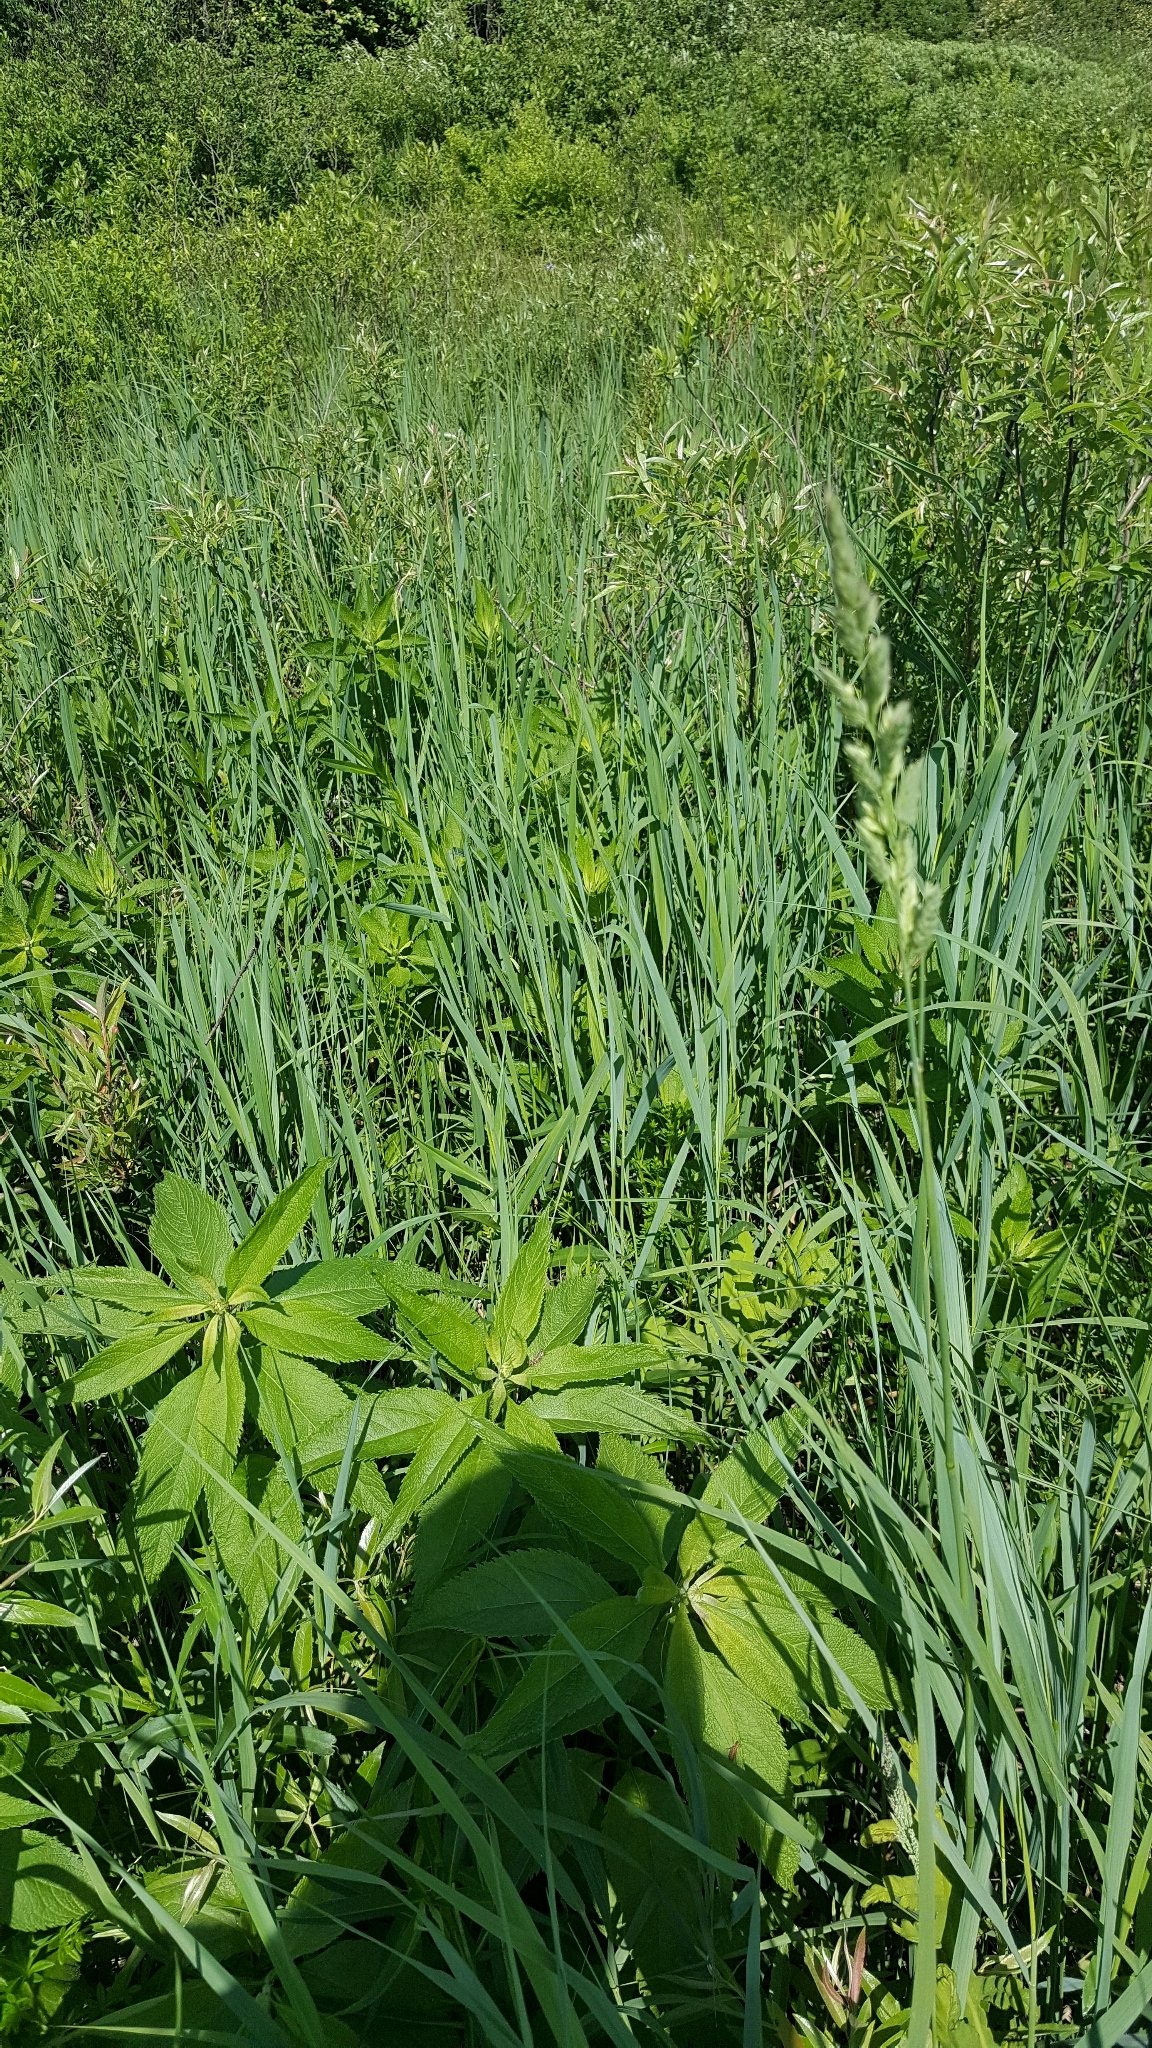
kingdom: Plantae
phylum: Tracheophyta
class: Liliopsida
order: Poales
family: Poaceae
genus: Phalaris
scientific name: Phalaris arundinacea
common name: Reed canary-grass
